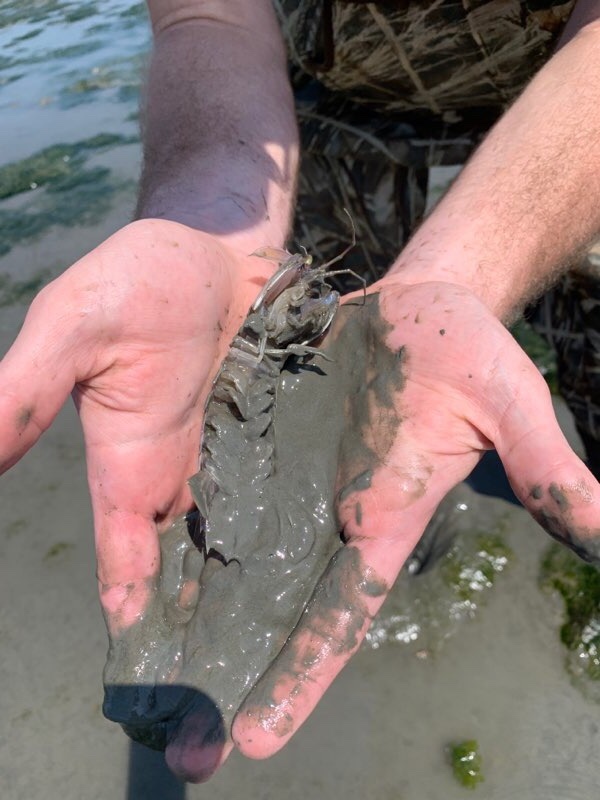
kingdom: Animalia
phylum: Arthropoda
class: Malacostraca
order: Stomatopoda
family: Squillidae
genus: Squilla
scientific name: Squilla empusa
